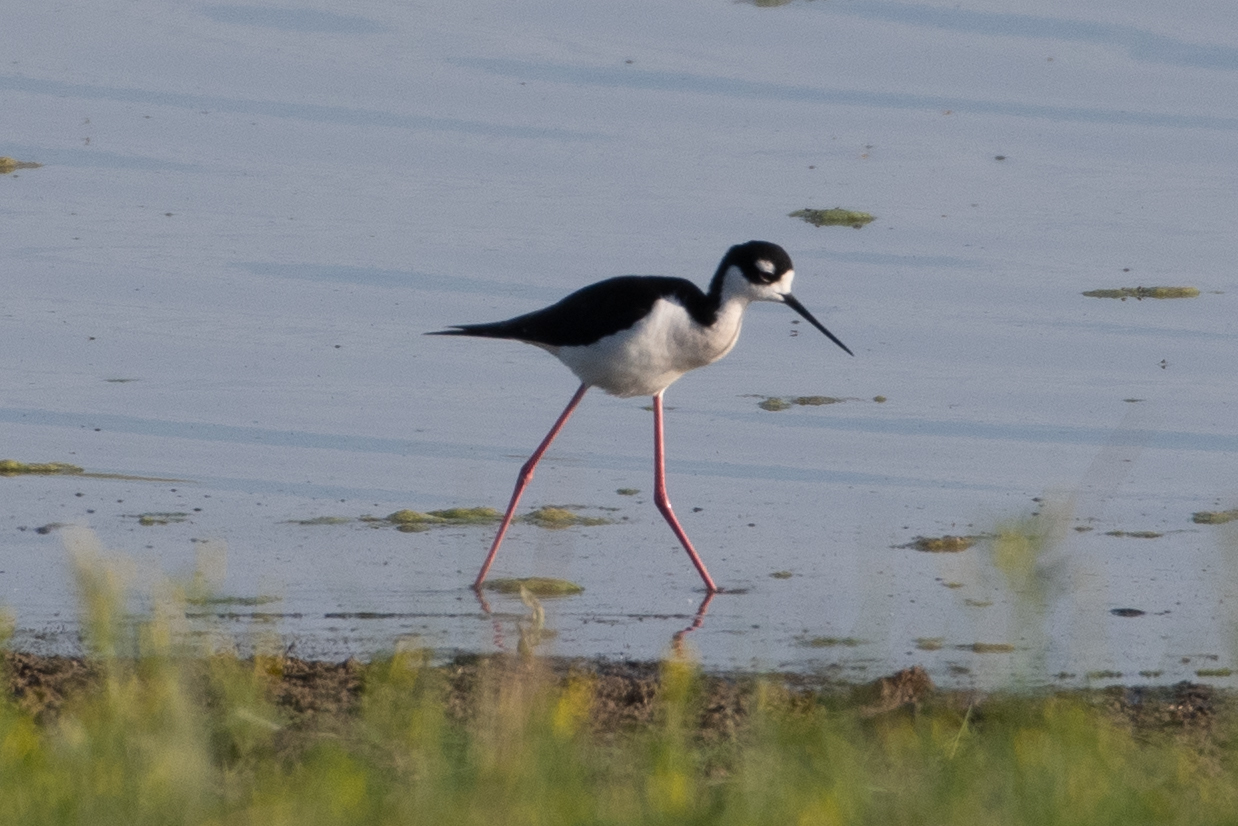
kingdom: Animalia
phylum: Chordata
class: Aves
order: Charadriiformes
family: Recurvirostridae
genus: Himantopus
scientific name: Himantopus mexicanus
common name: Black-necked stilt
